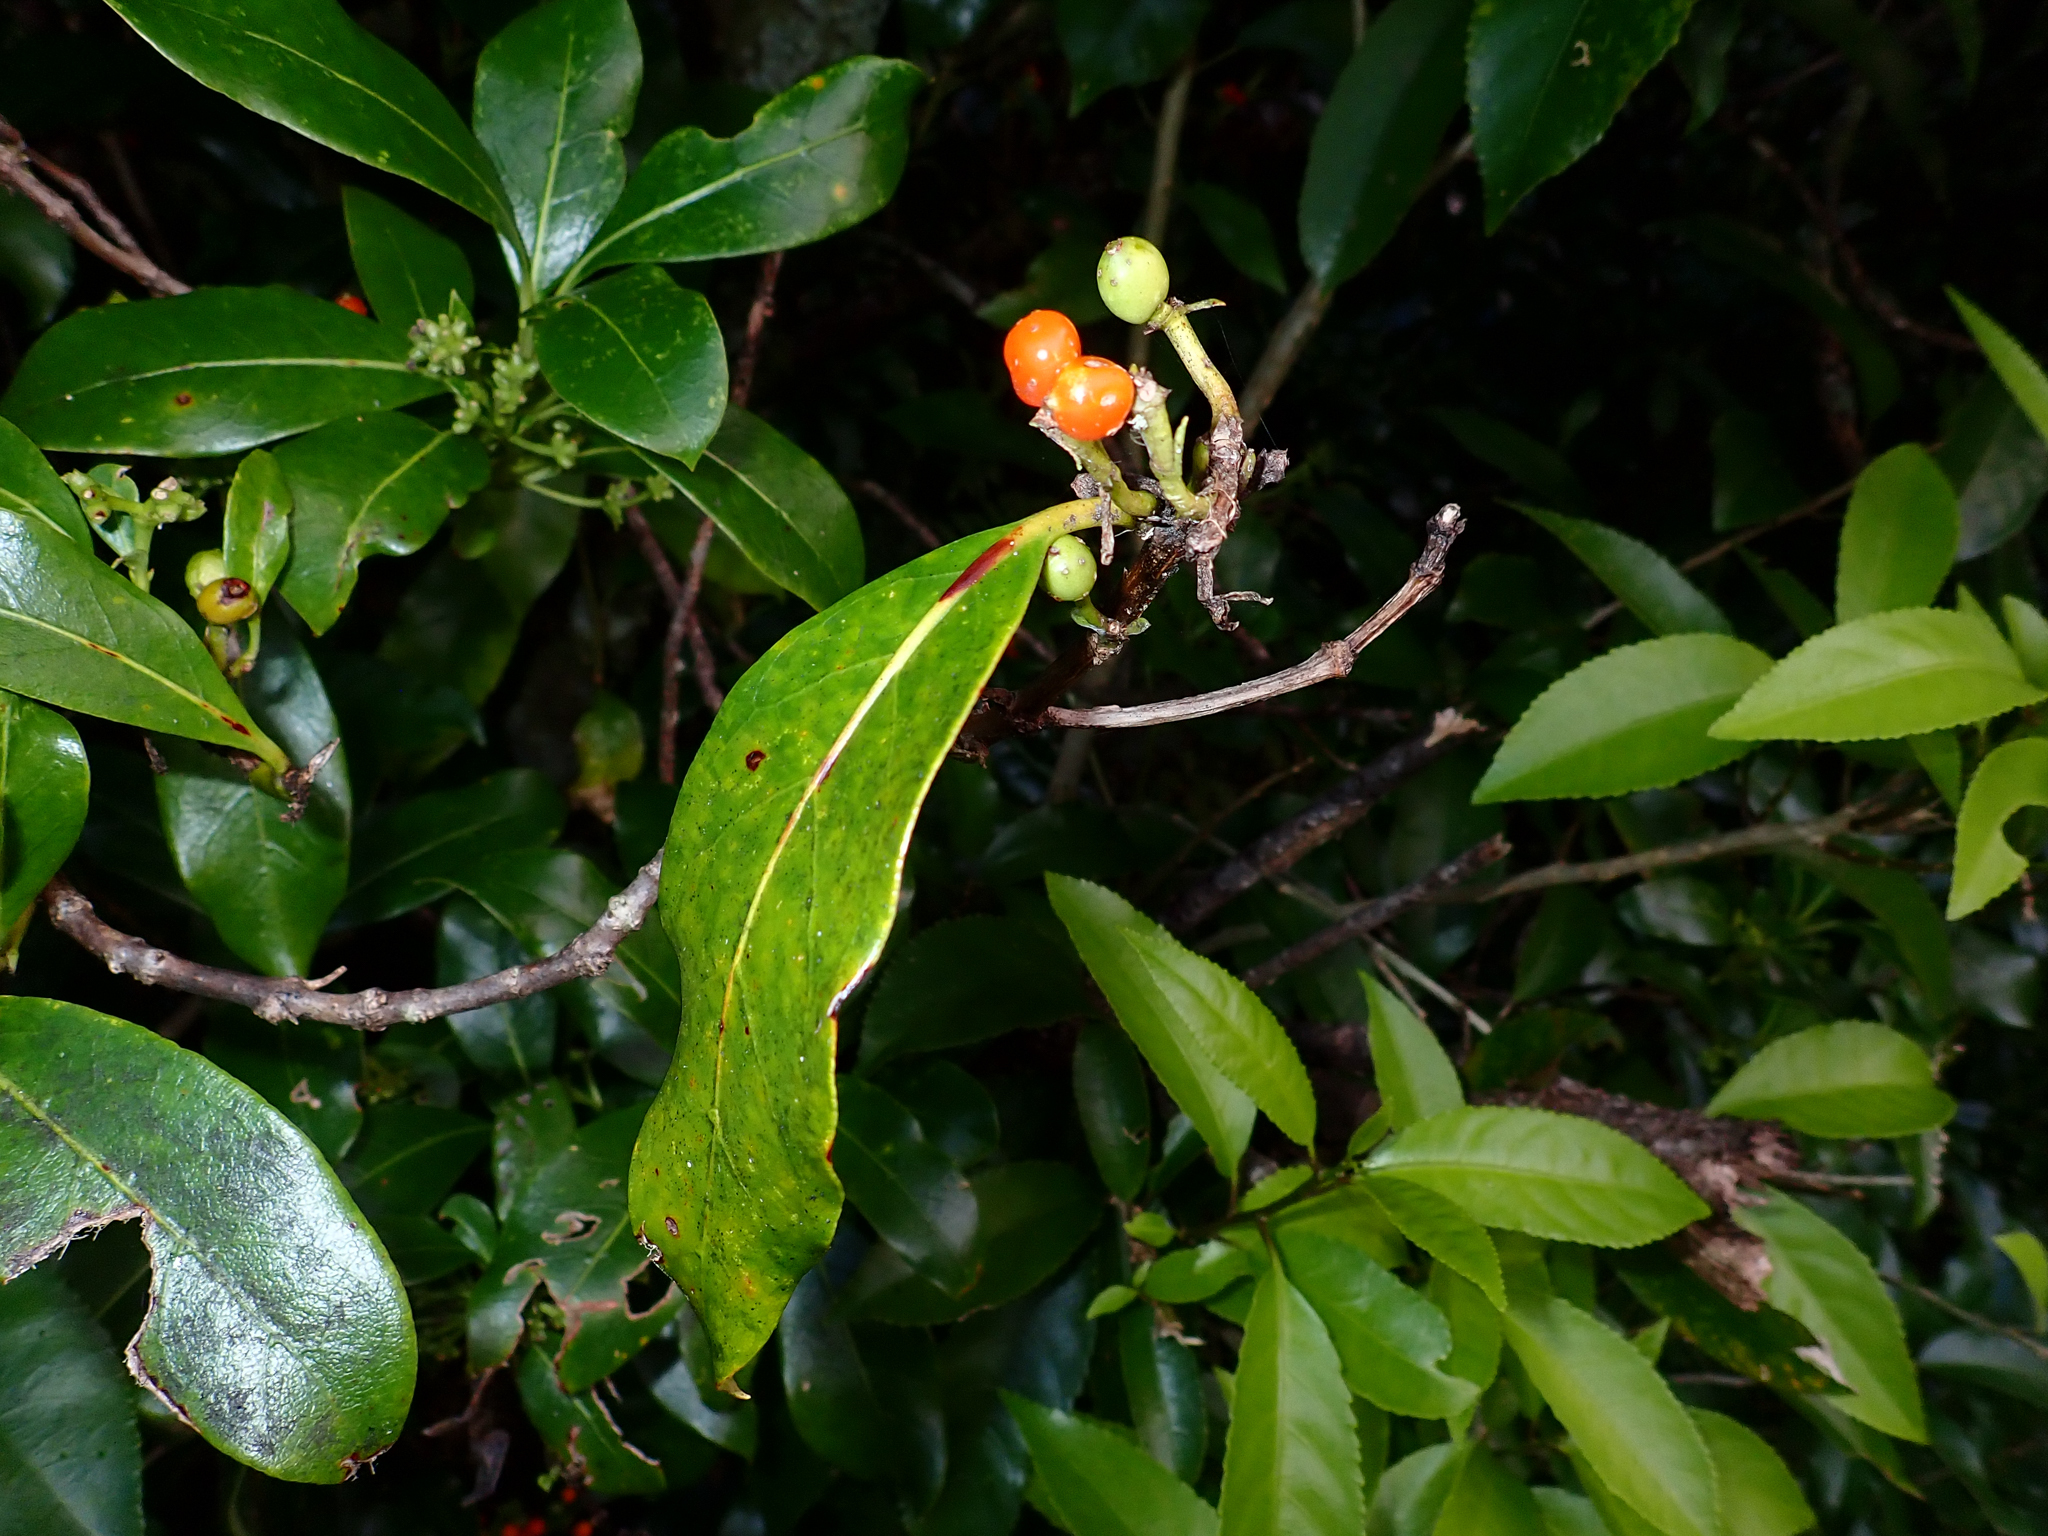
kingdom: Plantae
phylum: Tracheophyta
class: Magnoliopsida
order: Gentianales
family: Rubiaceae
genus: Coprosma
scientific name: Coprosma lucida
